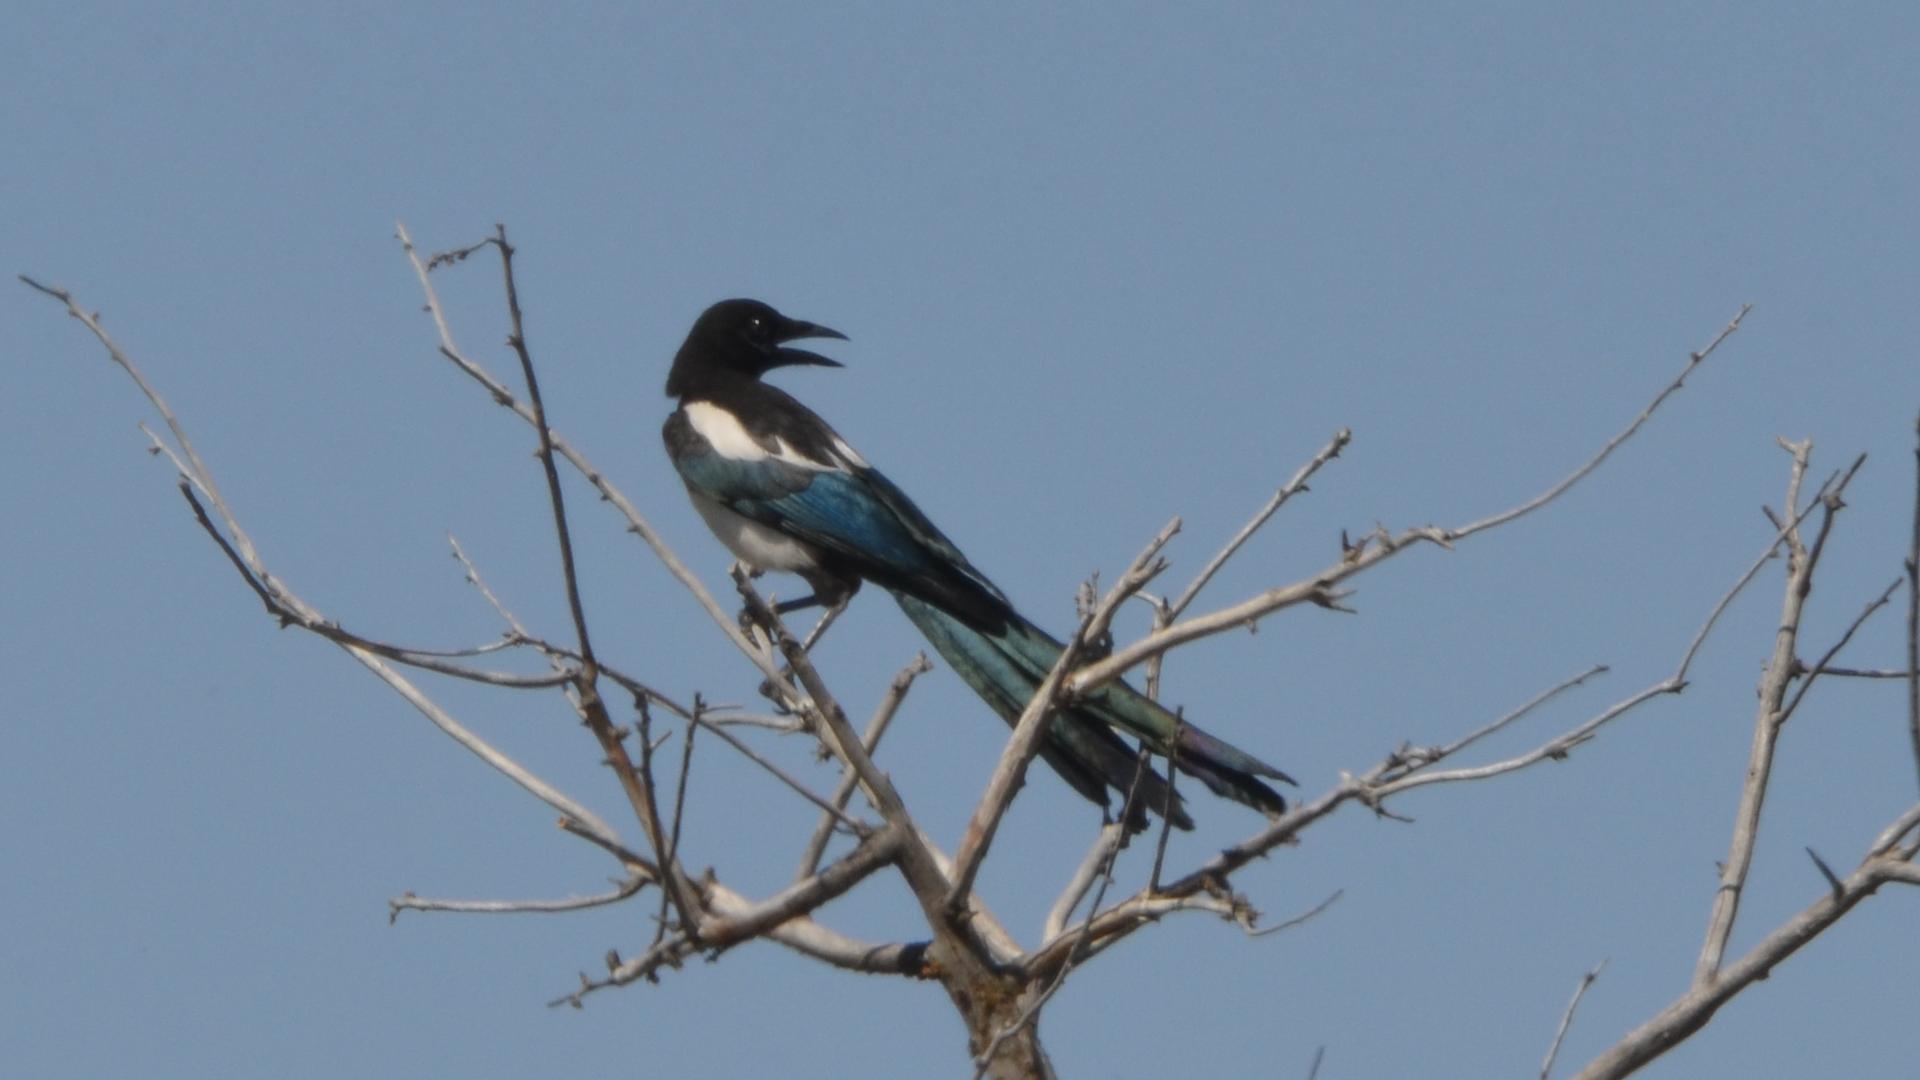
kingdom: Animalia
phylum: Chordata
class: Aves
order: Passeriformes
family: Corvidae
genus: Pica
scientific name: Pica hudsonia
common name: Black-billed magpie
